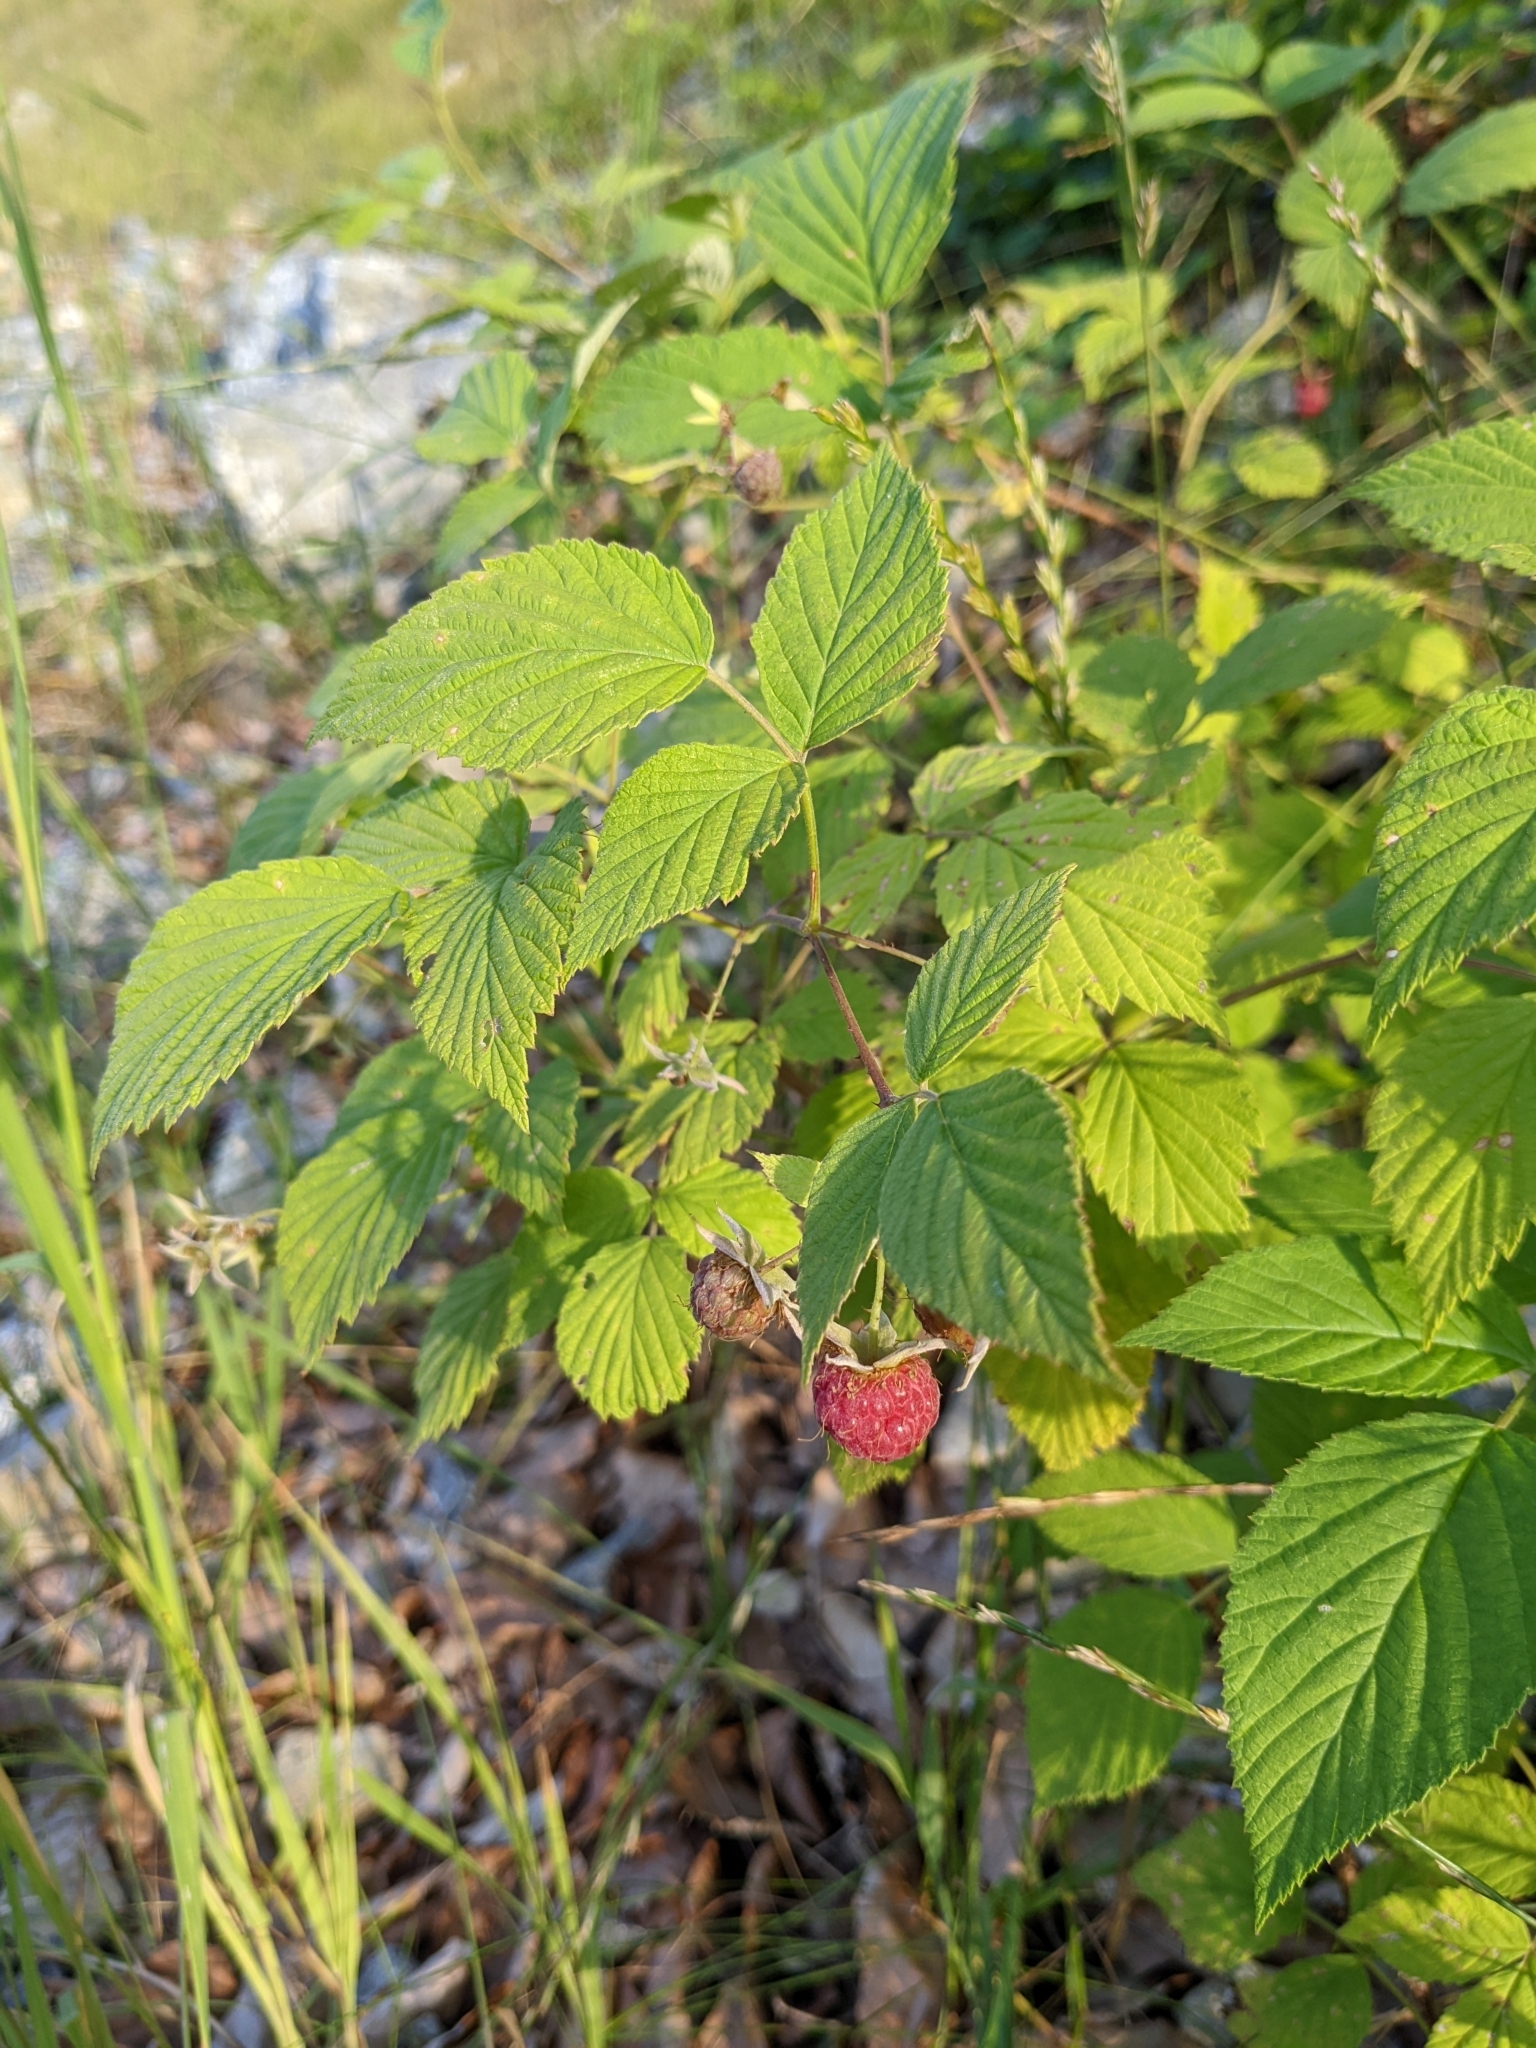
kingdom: Plantae
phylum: Tracheophyta
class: Magnoliopsida
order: Rosales
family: Rosaceae
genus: Rubus
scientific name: Rubus idaeus
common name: Raspberry
